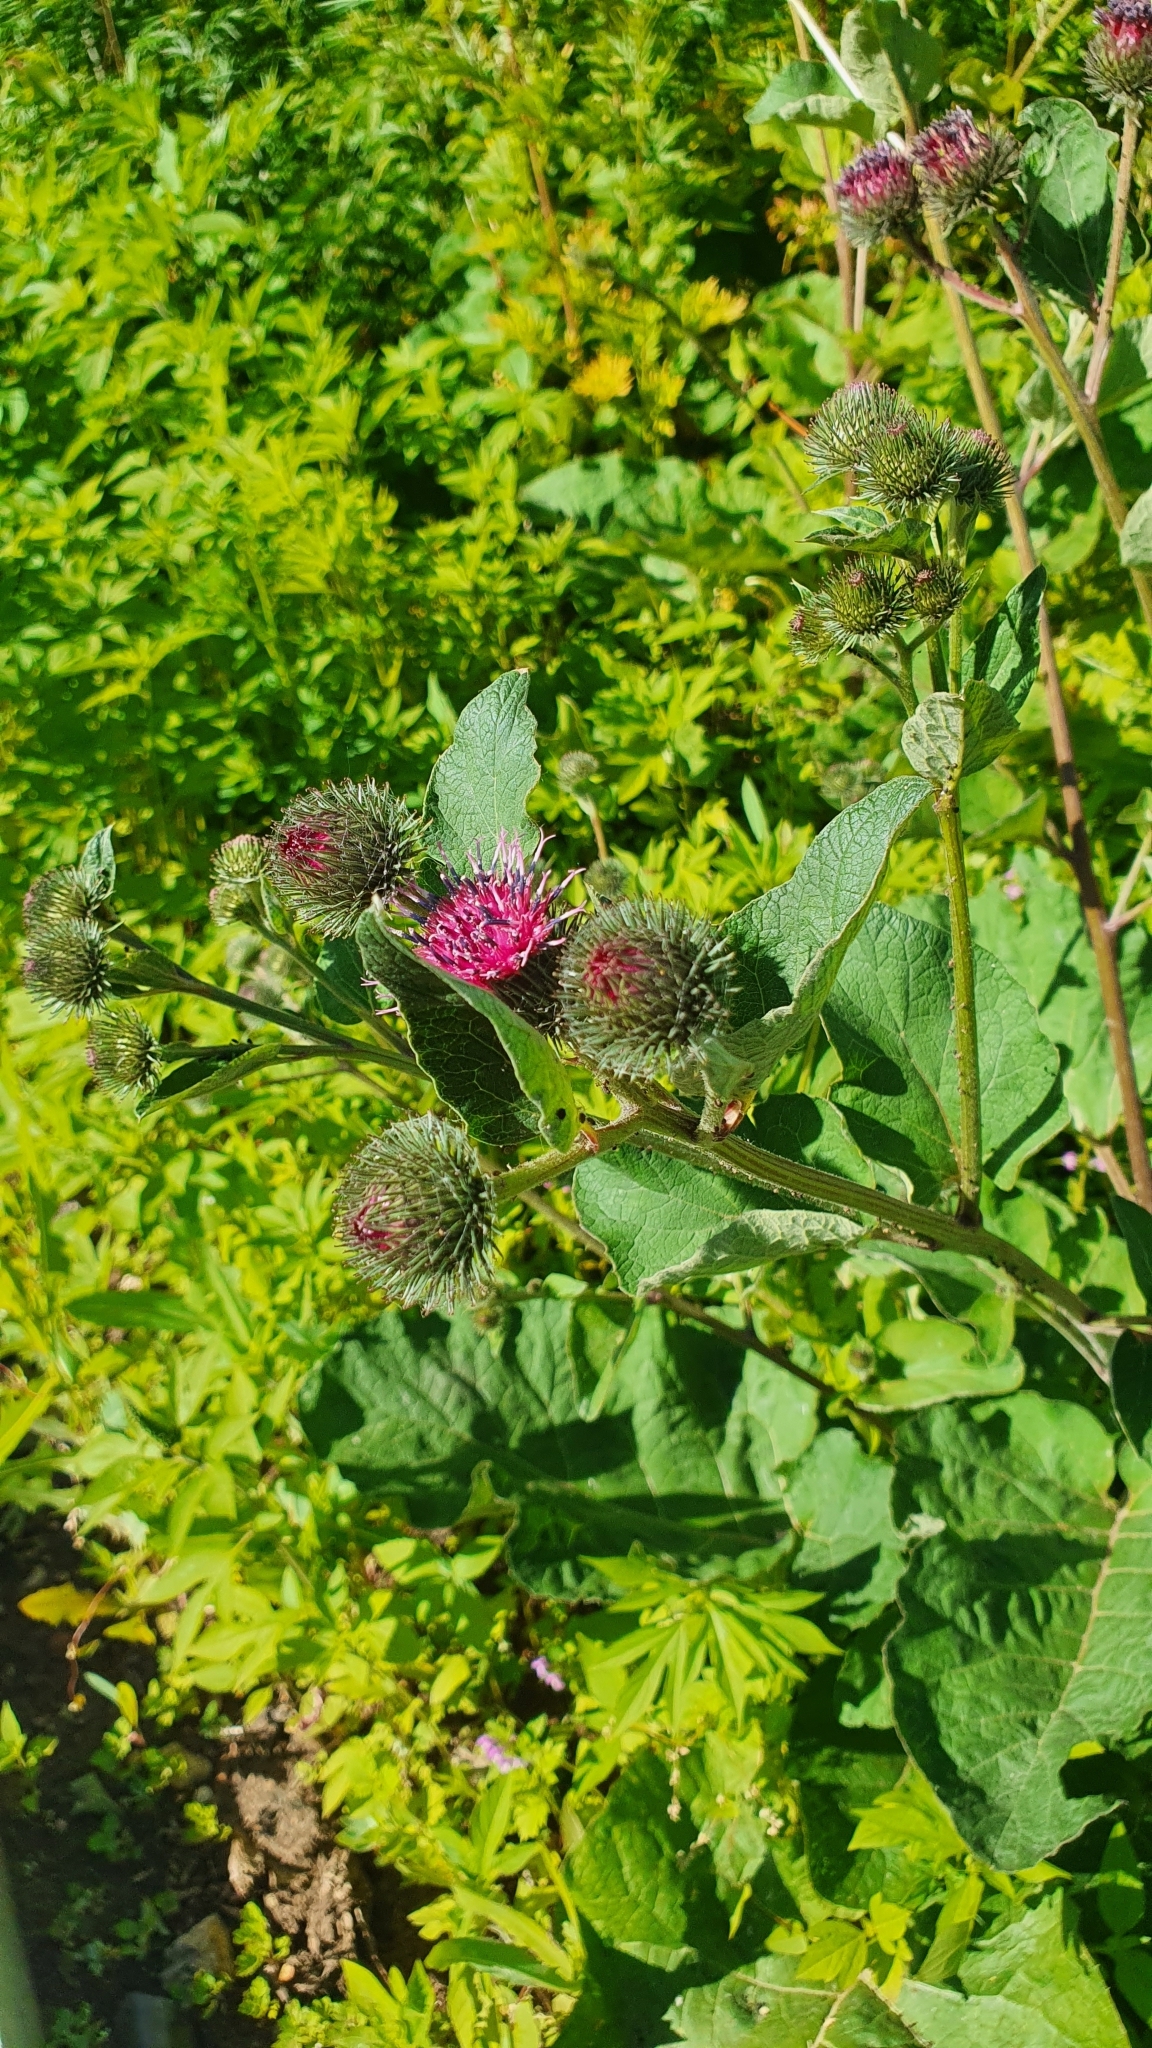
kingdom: Plantae
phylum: Tracheophyta
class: Magnoliopsida
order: Asterales
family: Asteraceae
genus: Arctium
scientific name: Arctium ambiguum
